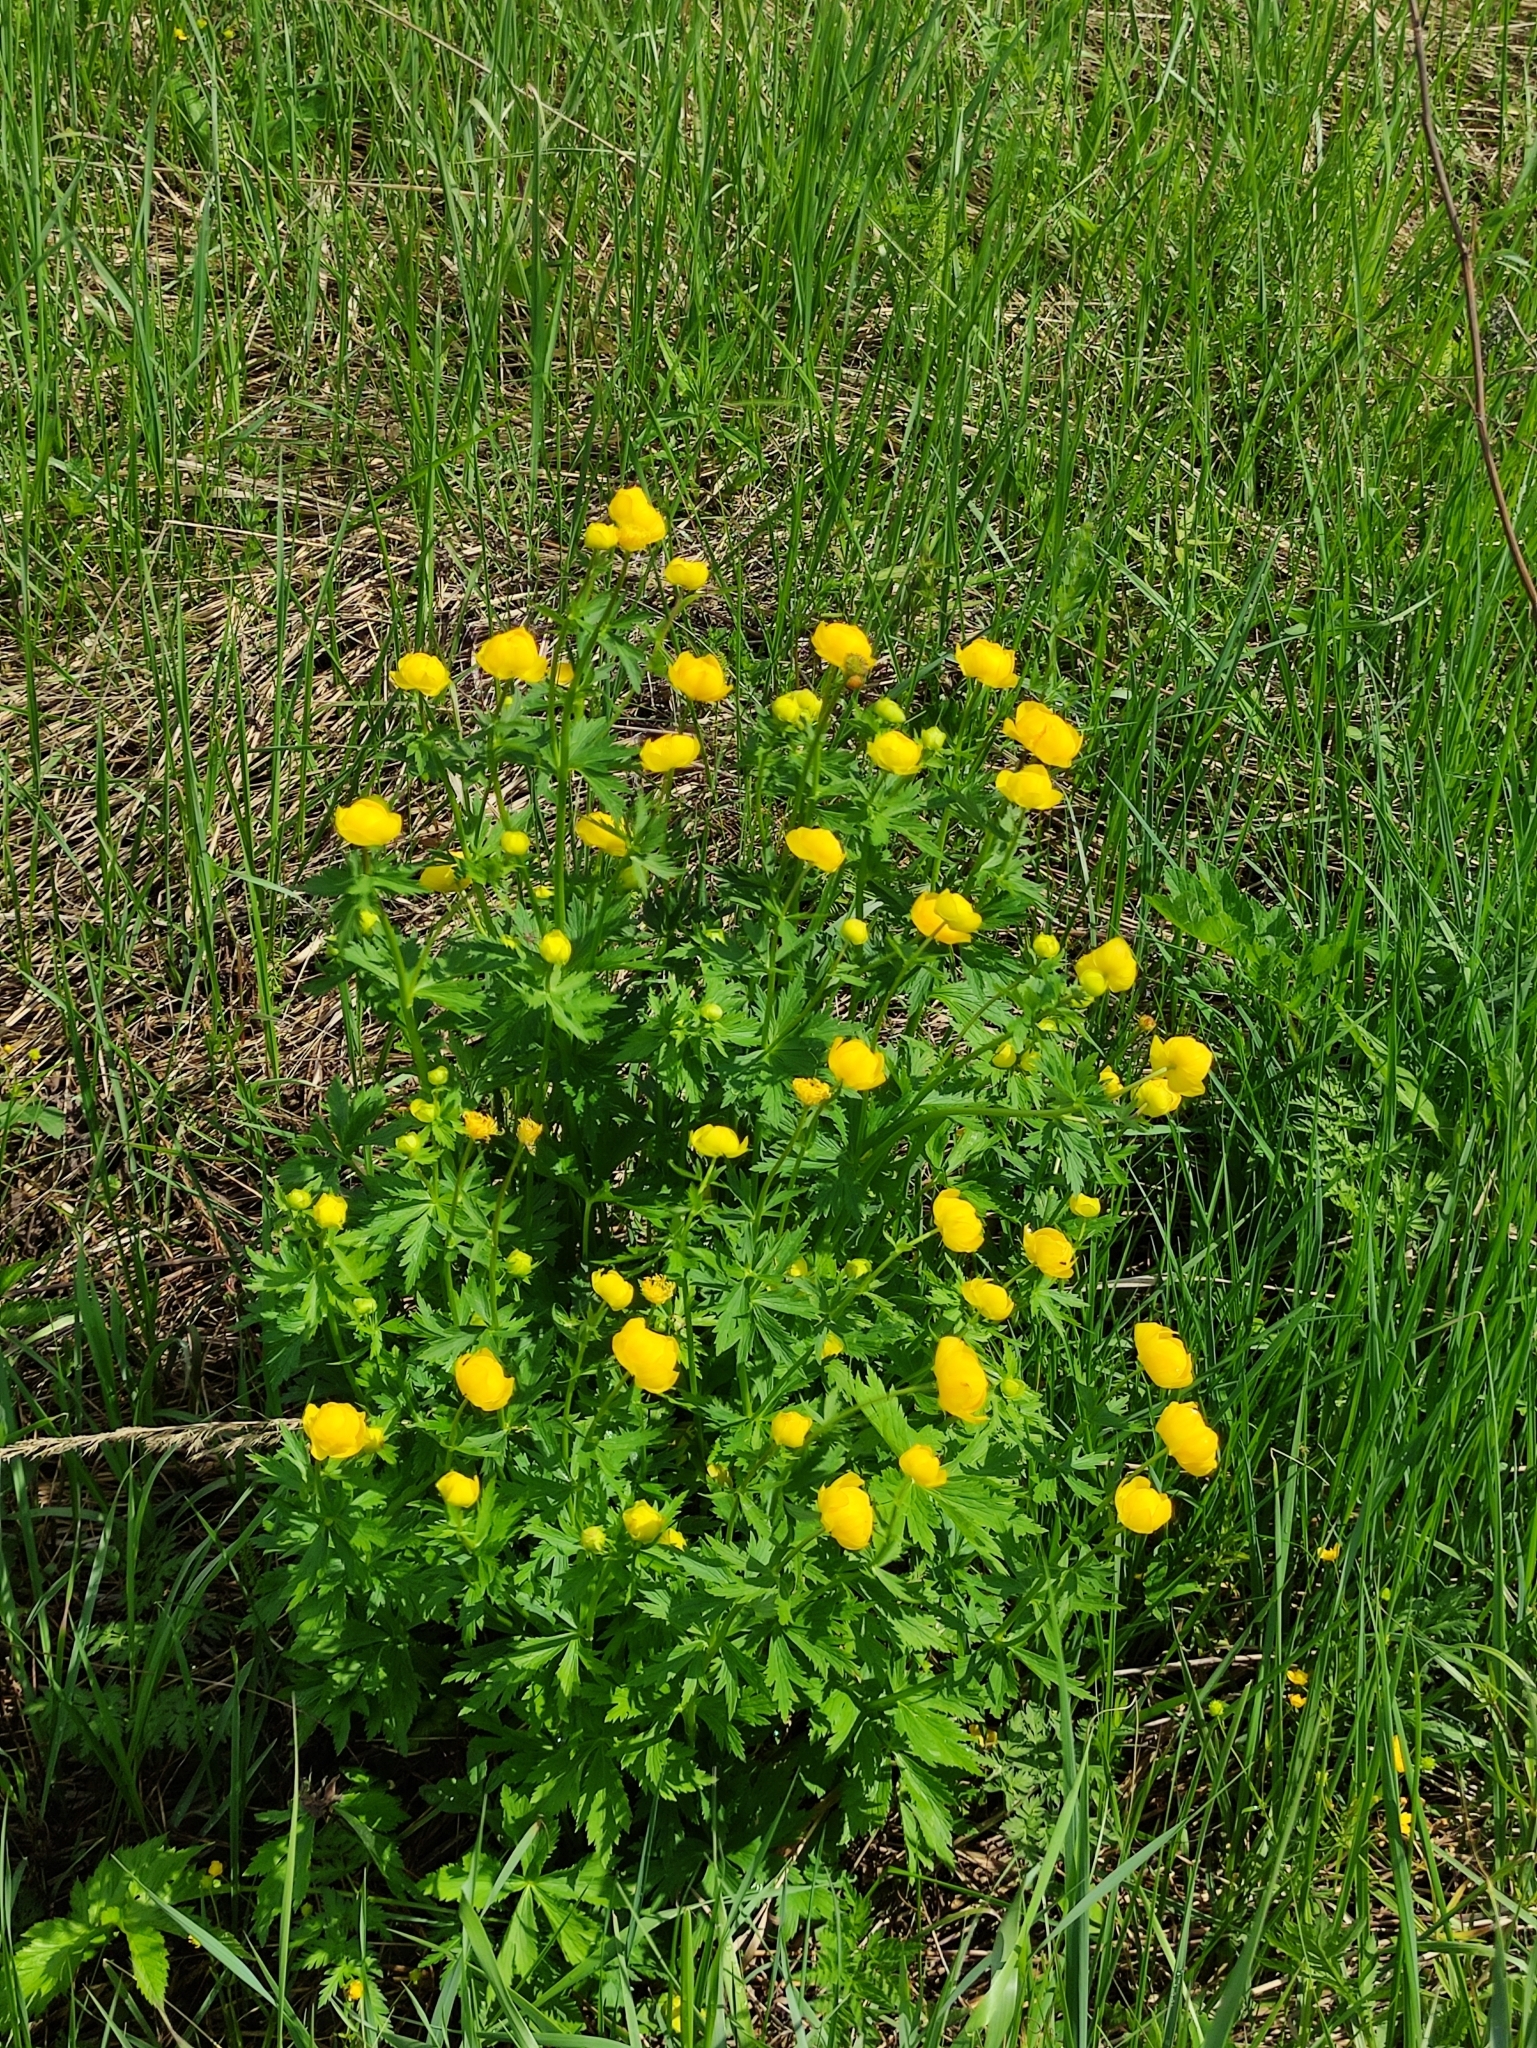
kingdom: Plantae
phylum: Tracheophyta
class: Magnoliopsida
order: Ranunculales
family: Ranunculaceae
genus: Trollius
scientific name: Trollius europaeus
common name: European globeflower
